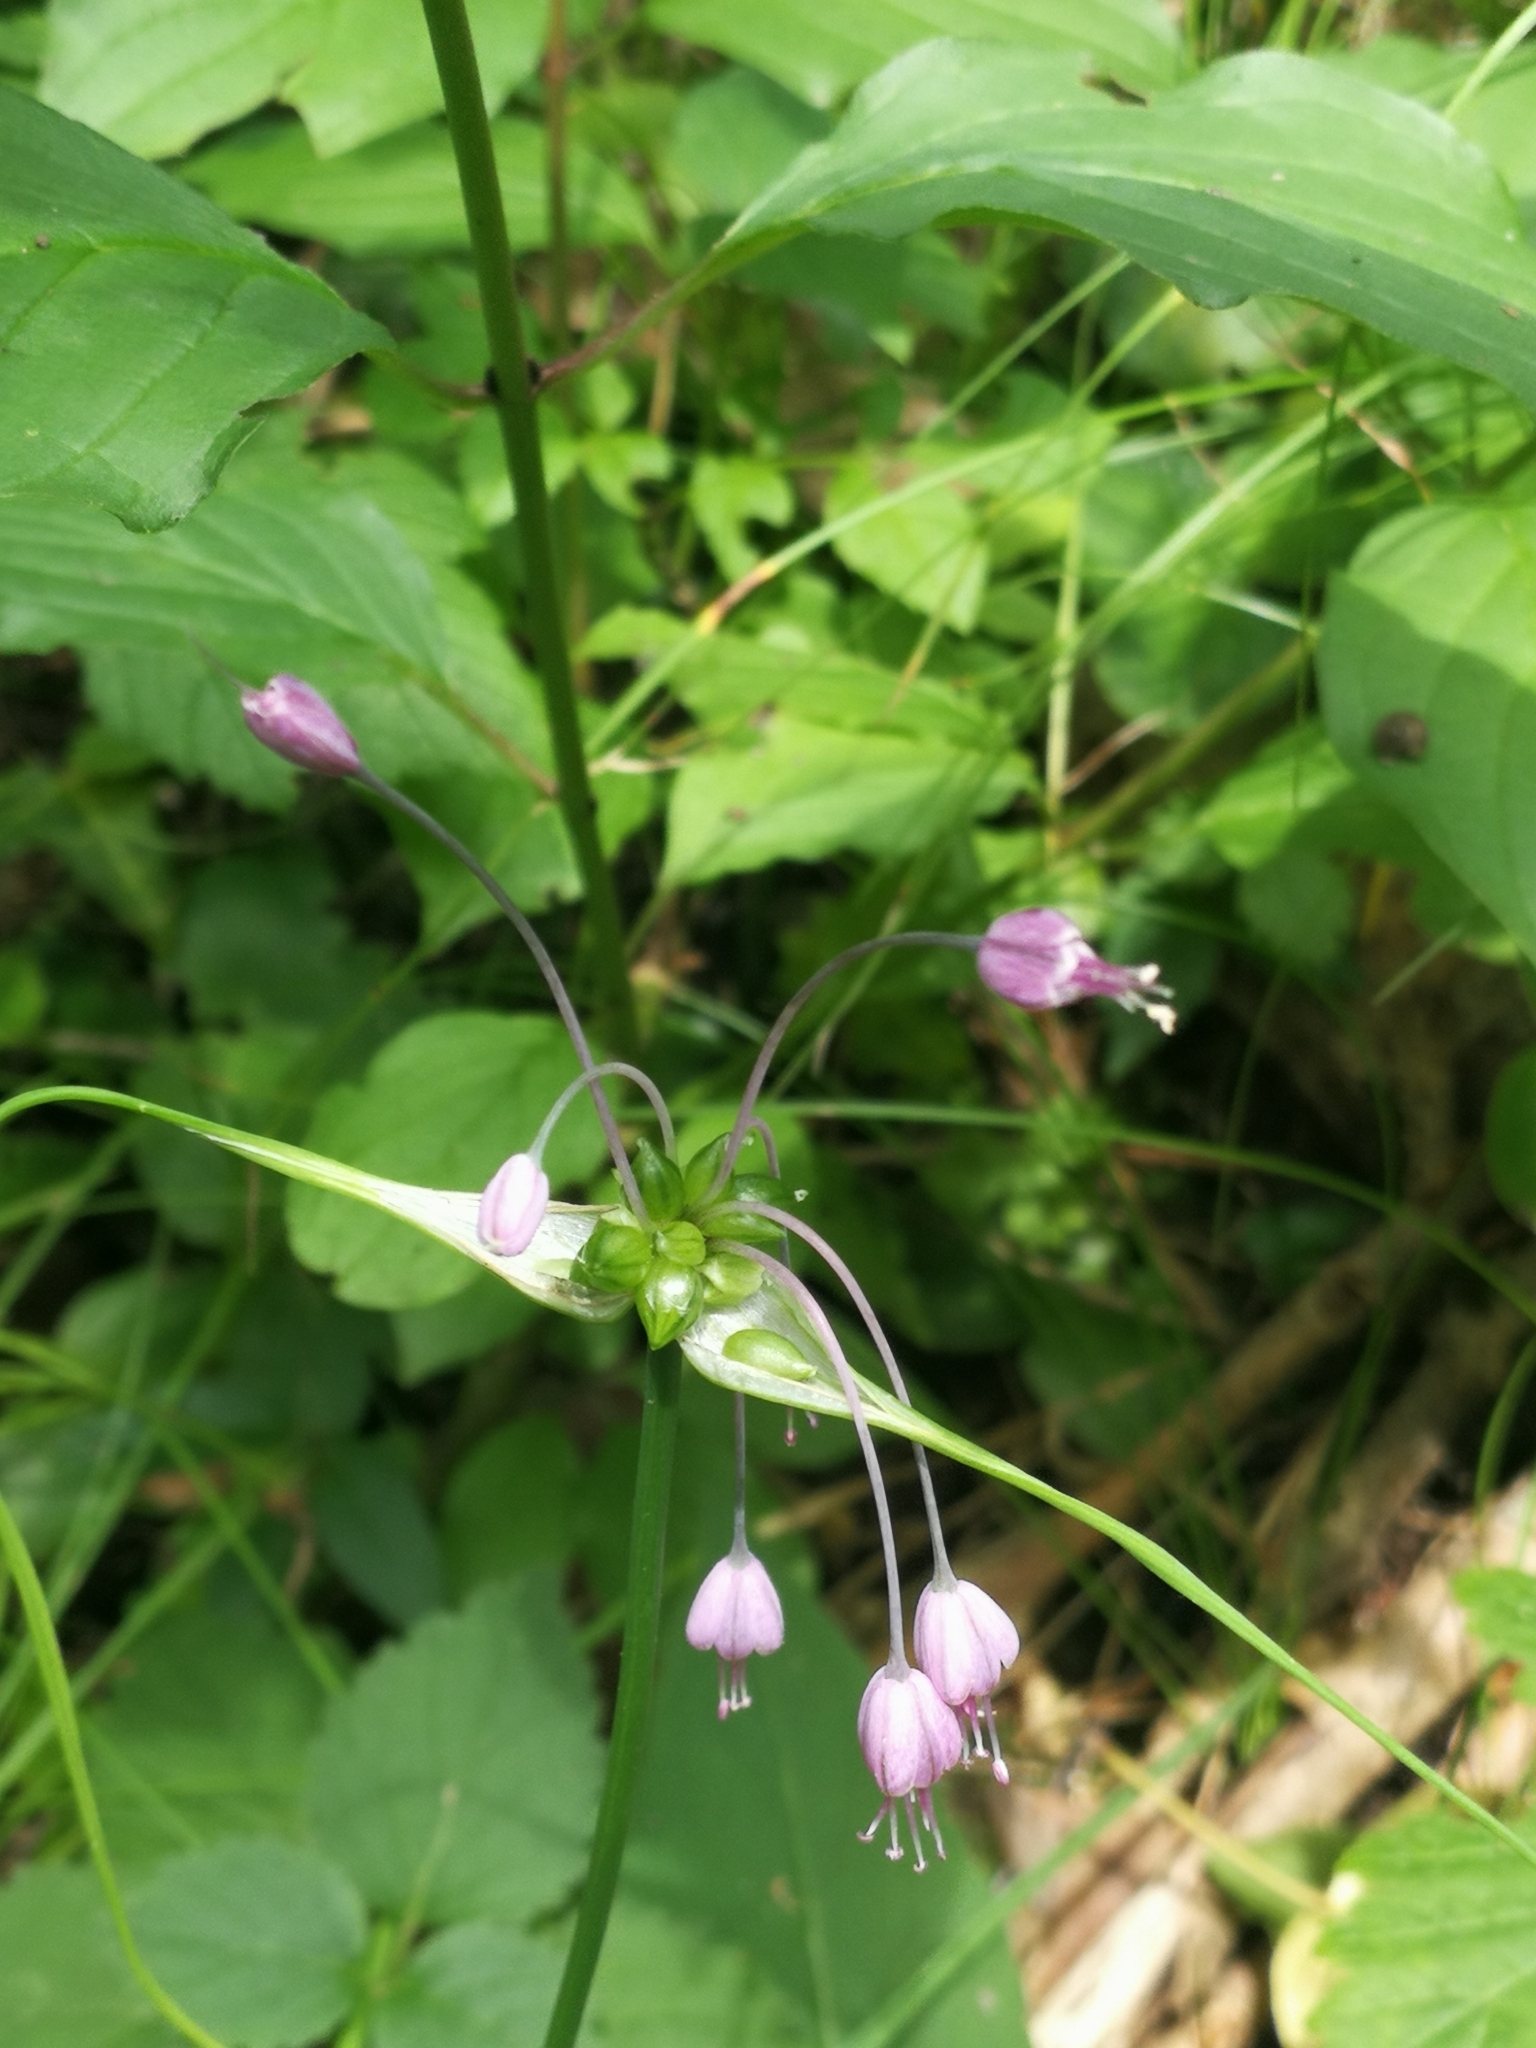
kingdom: Plantae
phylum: Tracheophyta
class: Liliopsida
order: Asparagales
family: Amaryllidaceae
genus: Allium
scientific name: Allium carinatum
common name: Keeled garlic
